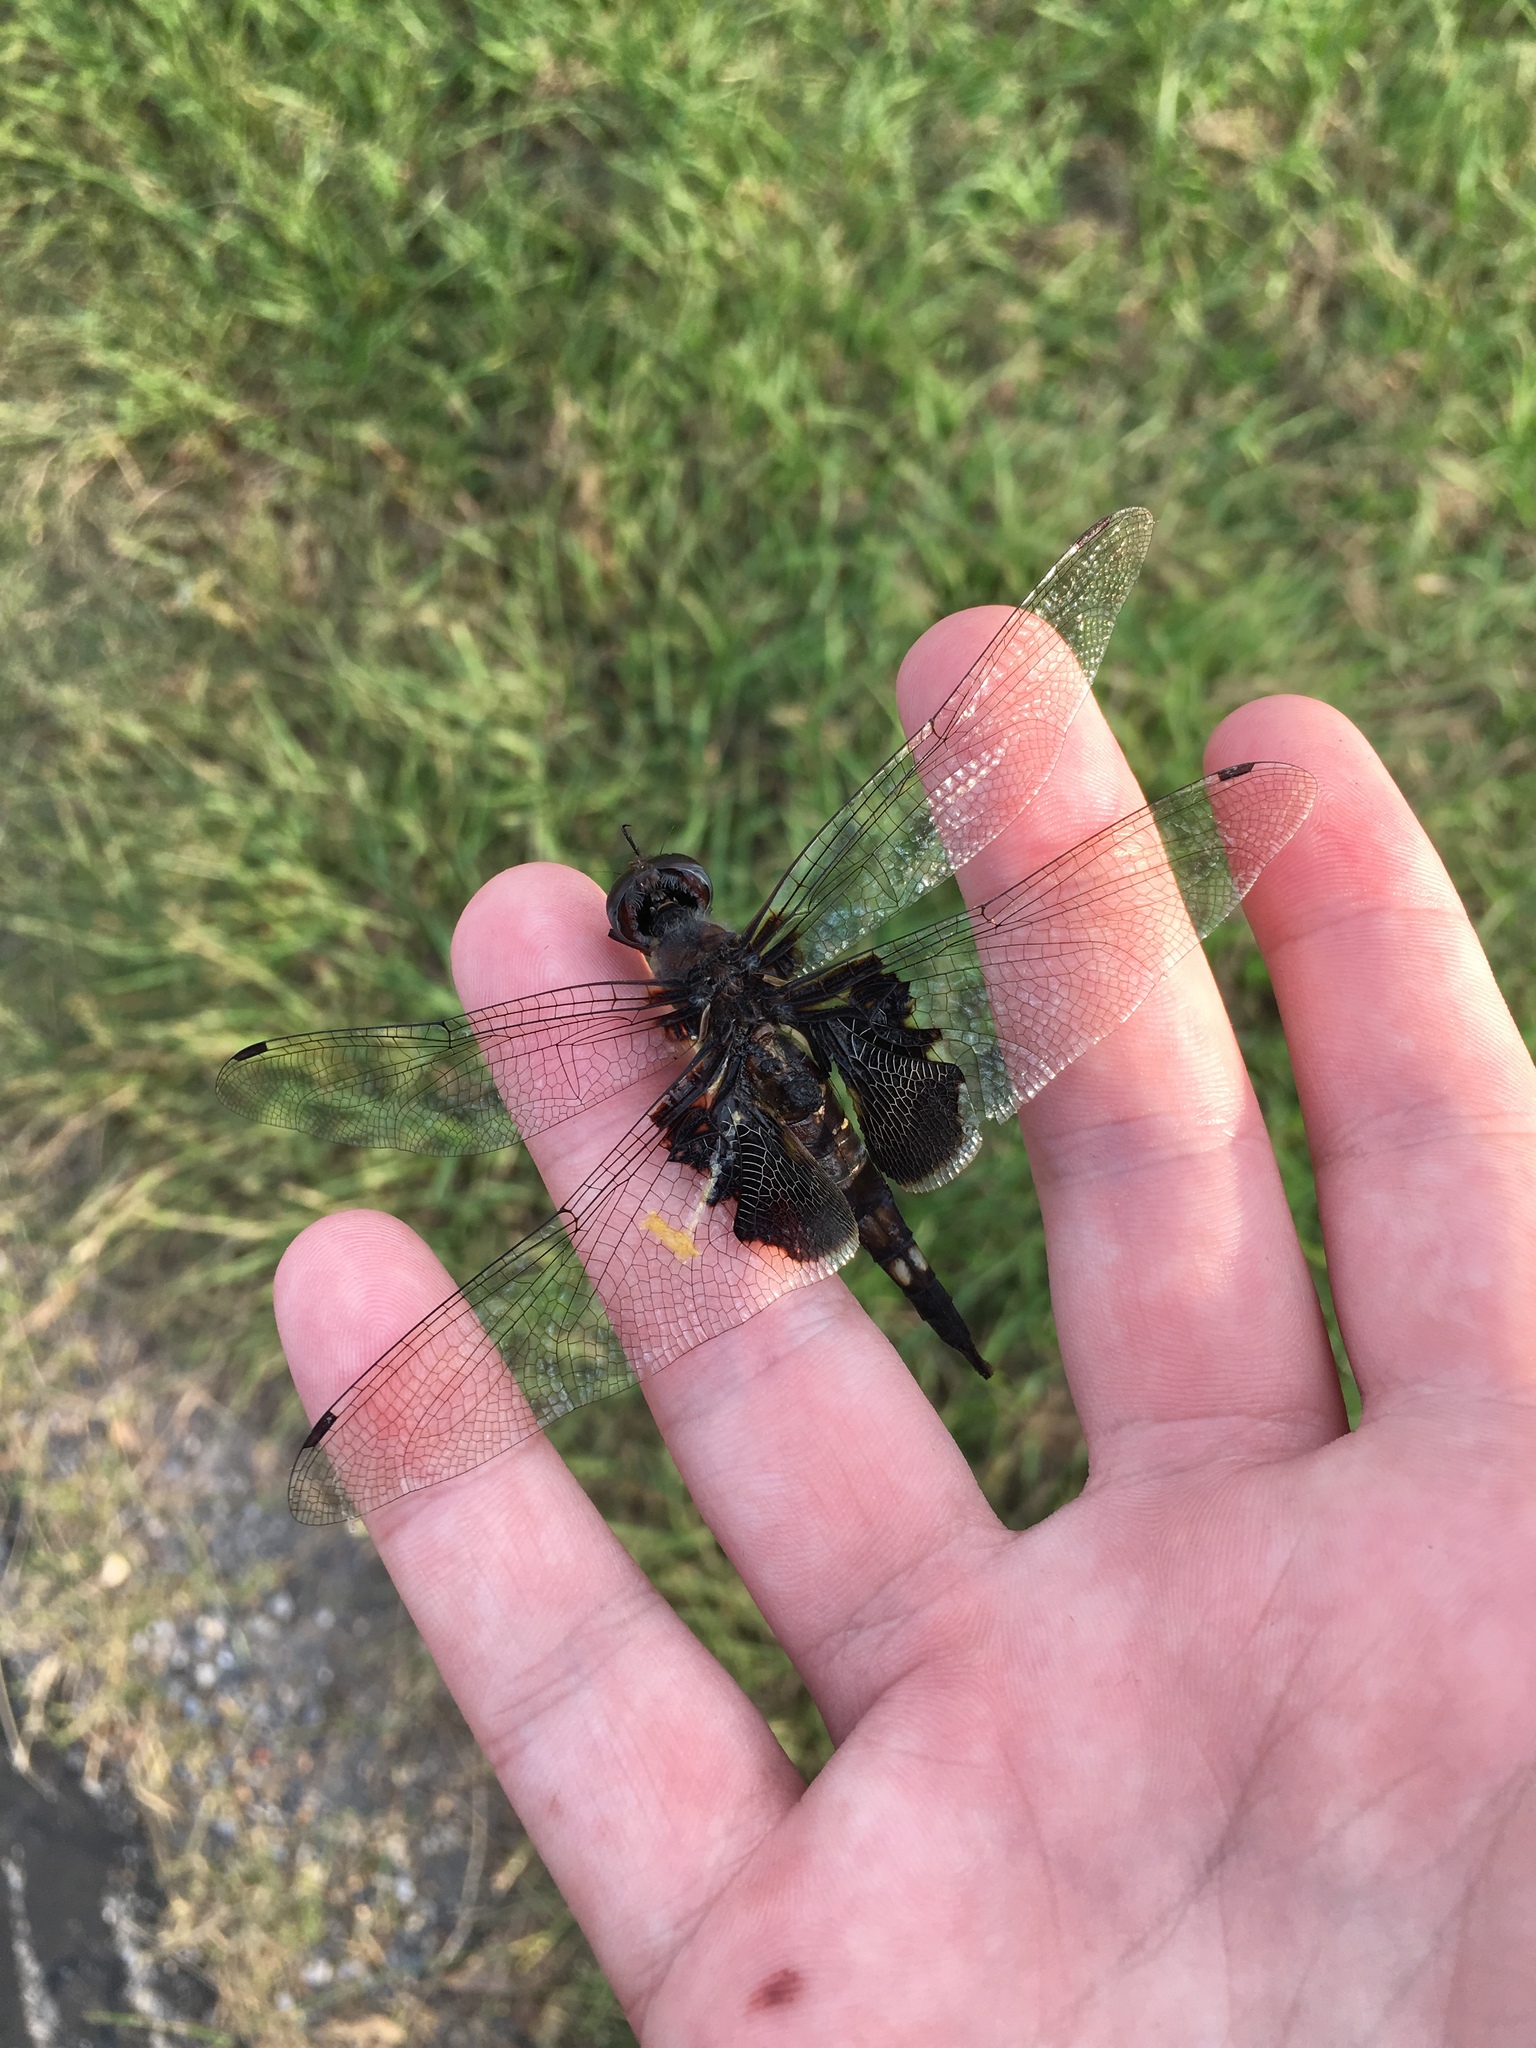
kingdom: Animalia
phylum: Arthropoda
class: Insecta
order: Odonata
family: Libellulidae
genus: Tramea
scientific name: Tramea lacerata
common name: Black saddlebags
